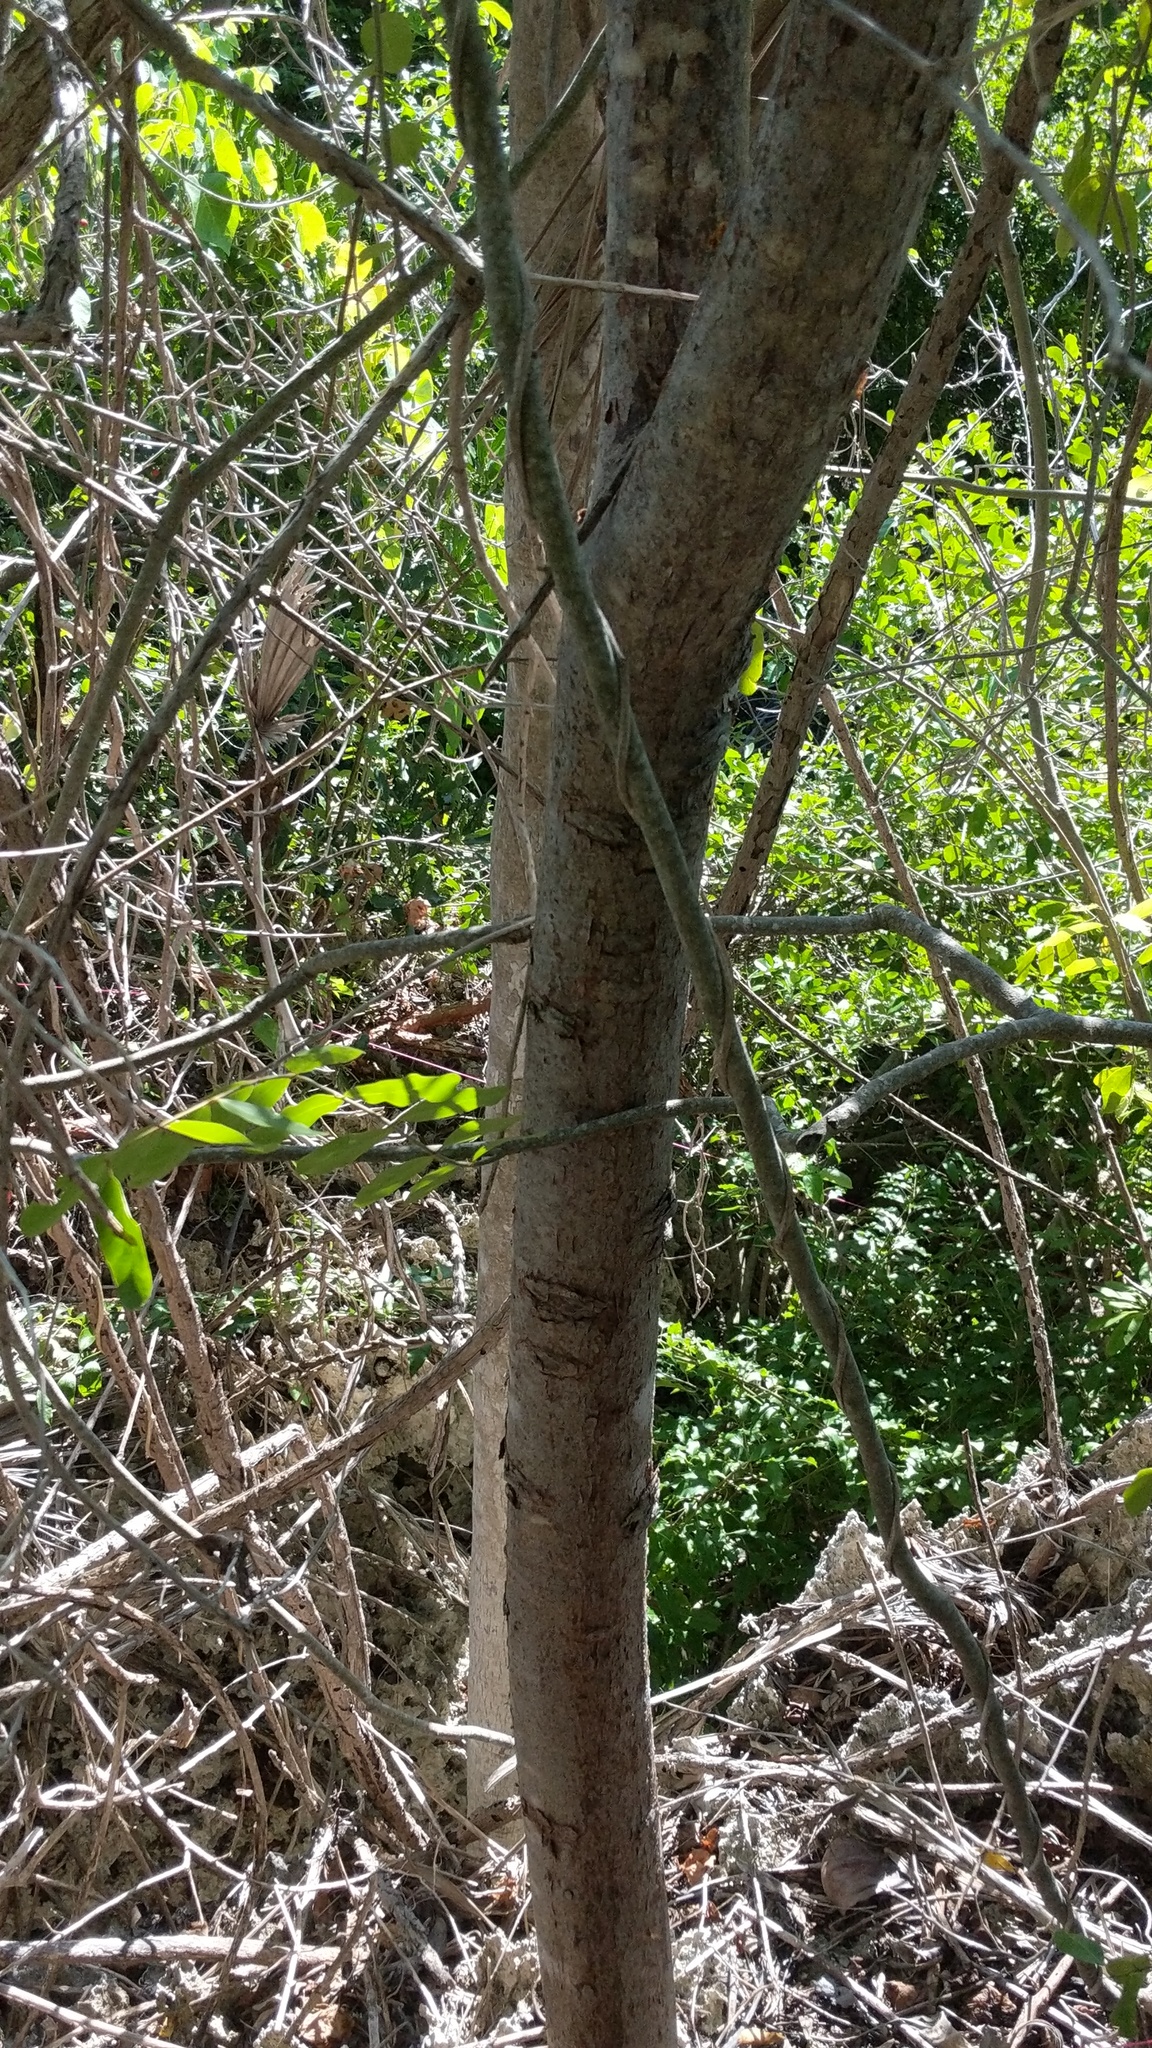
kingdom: Plantae
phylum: Tracheophyta
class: Magnoliopsida
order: Sapindales
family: Burseraceae
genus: Bursera
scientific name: Bursera simaruba
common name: Turpentine tree
